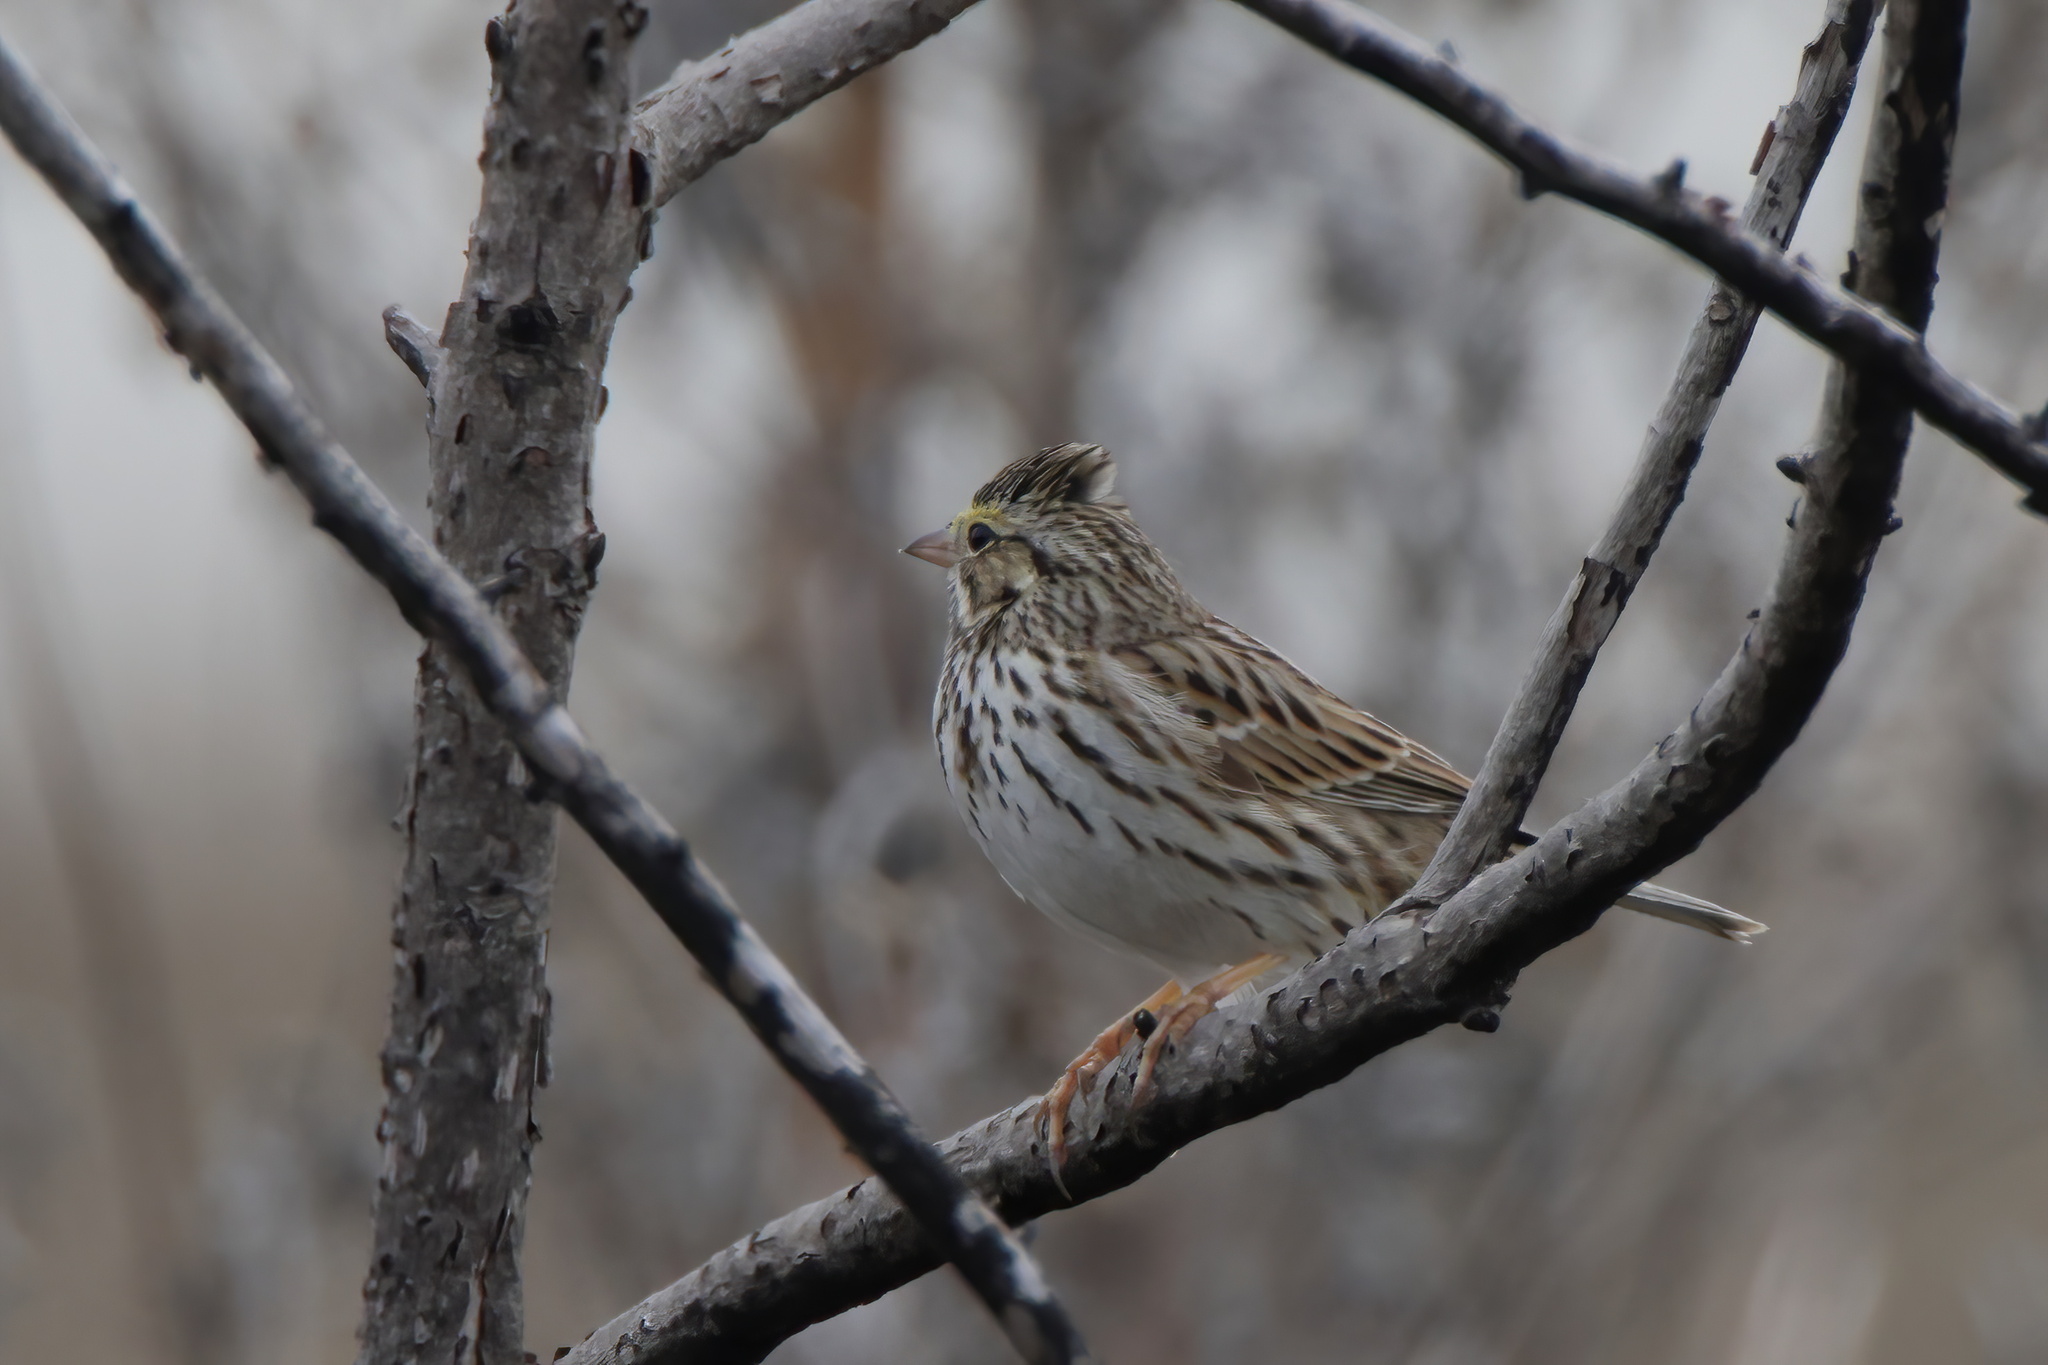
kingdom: Animalia
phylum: Chordata
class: Aves
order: Passeriformes
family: Passerellidae
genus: Passerculus
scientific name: Passerculus sandwichensis
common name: Savannah sparrow
